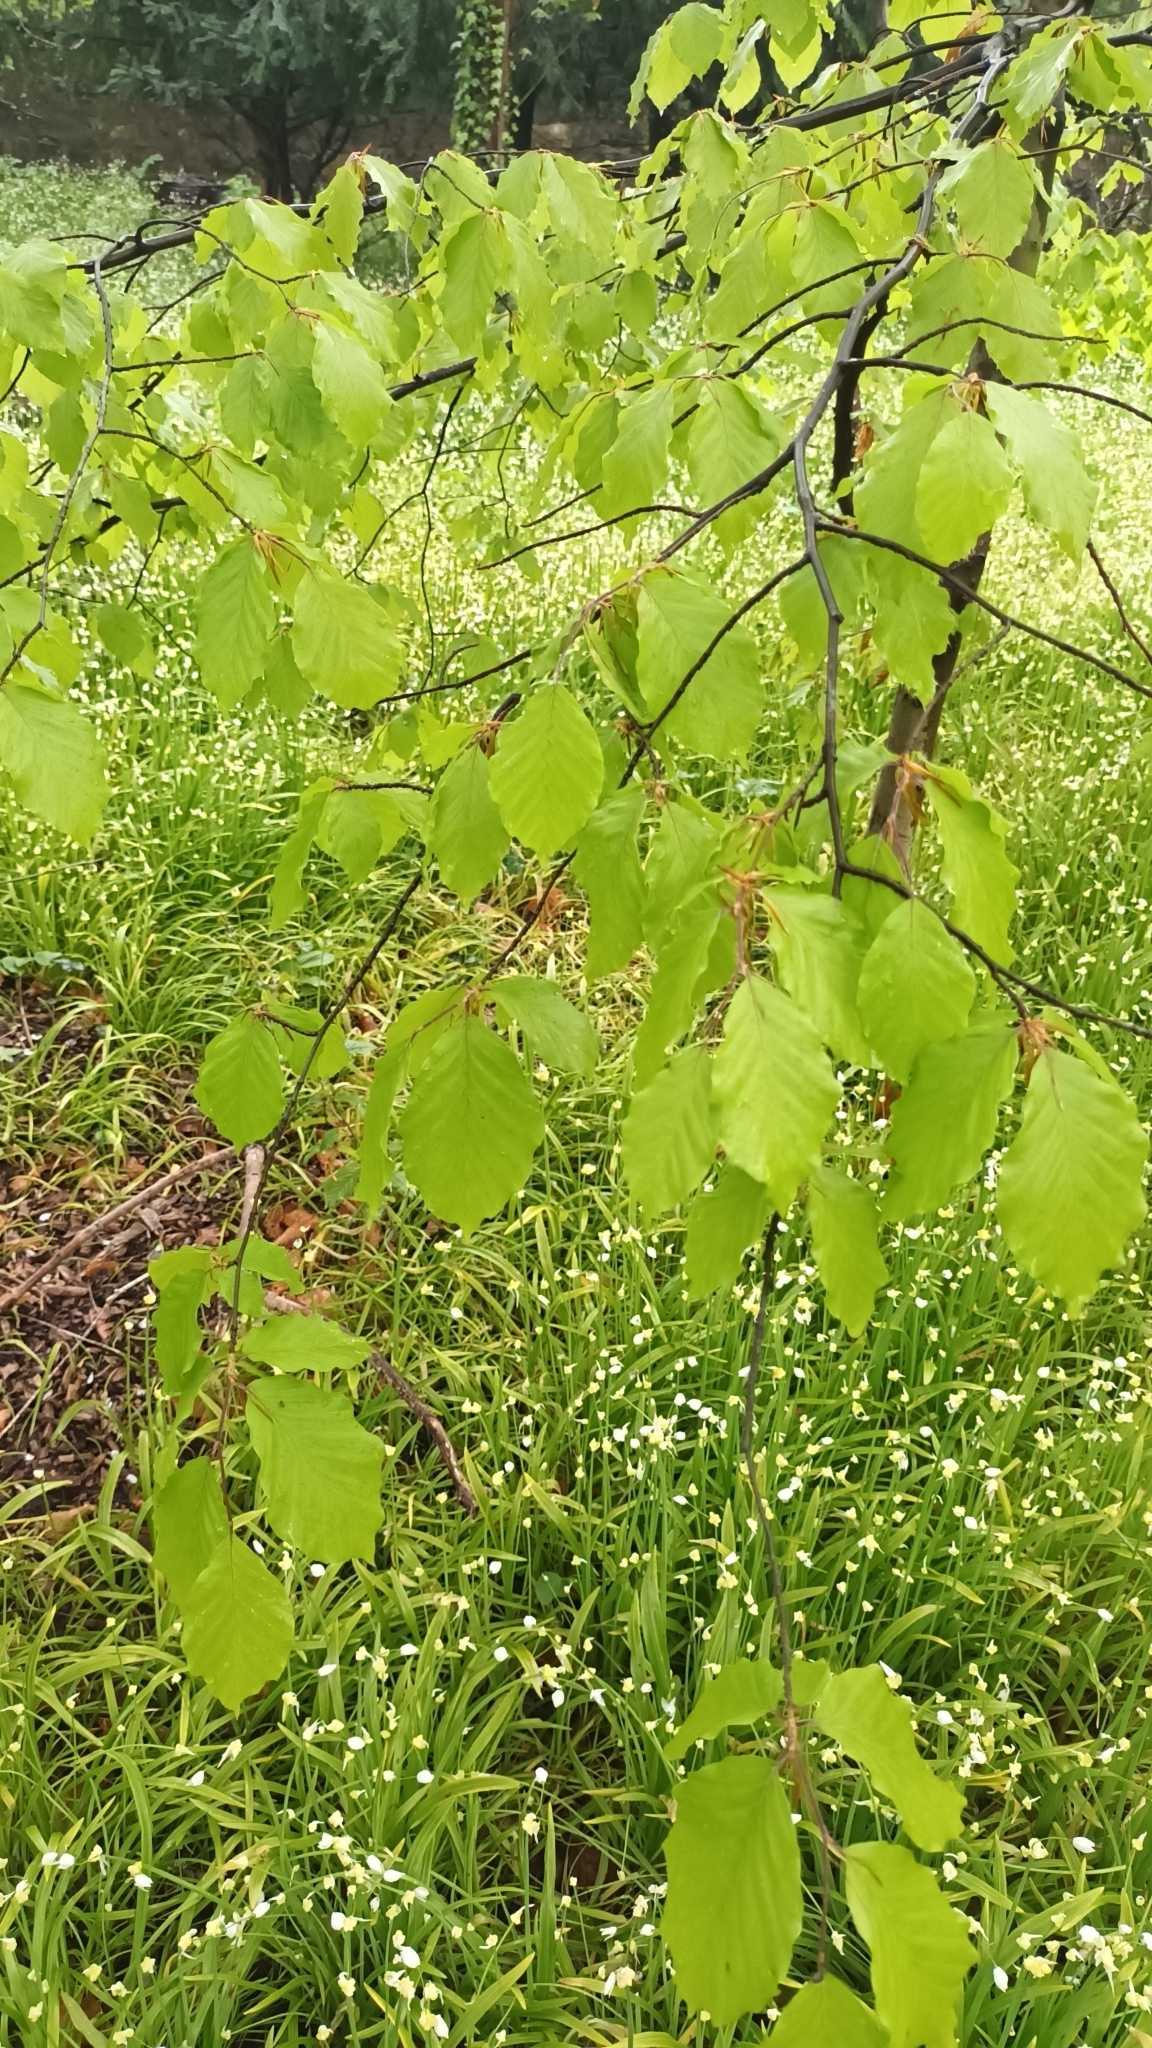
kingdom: Plantae
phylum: Tracheophyta
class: Magnoliopsida
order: Fagales
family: Fagaceae
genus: Fagus
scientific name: Fagus sylvatica
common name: Beech
